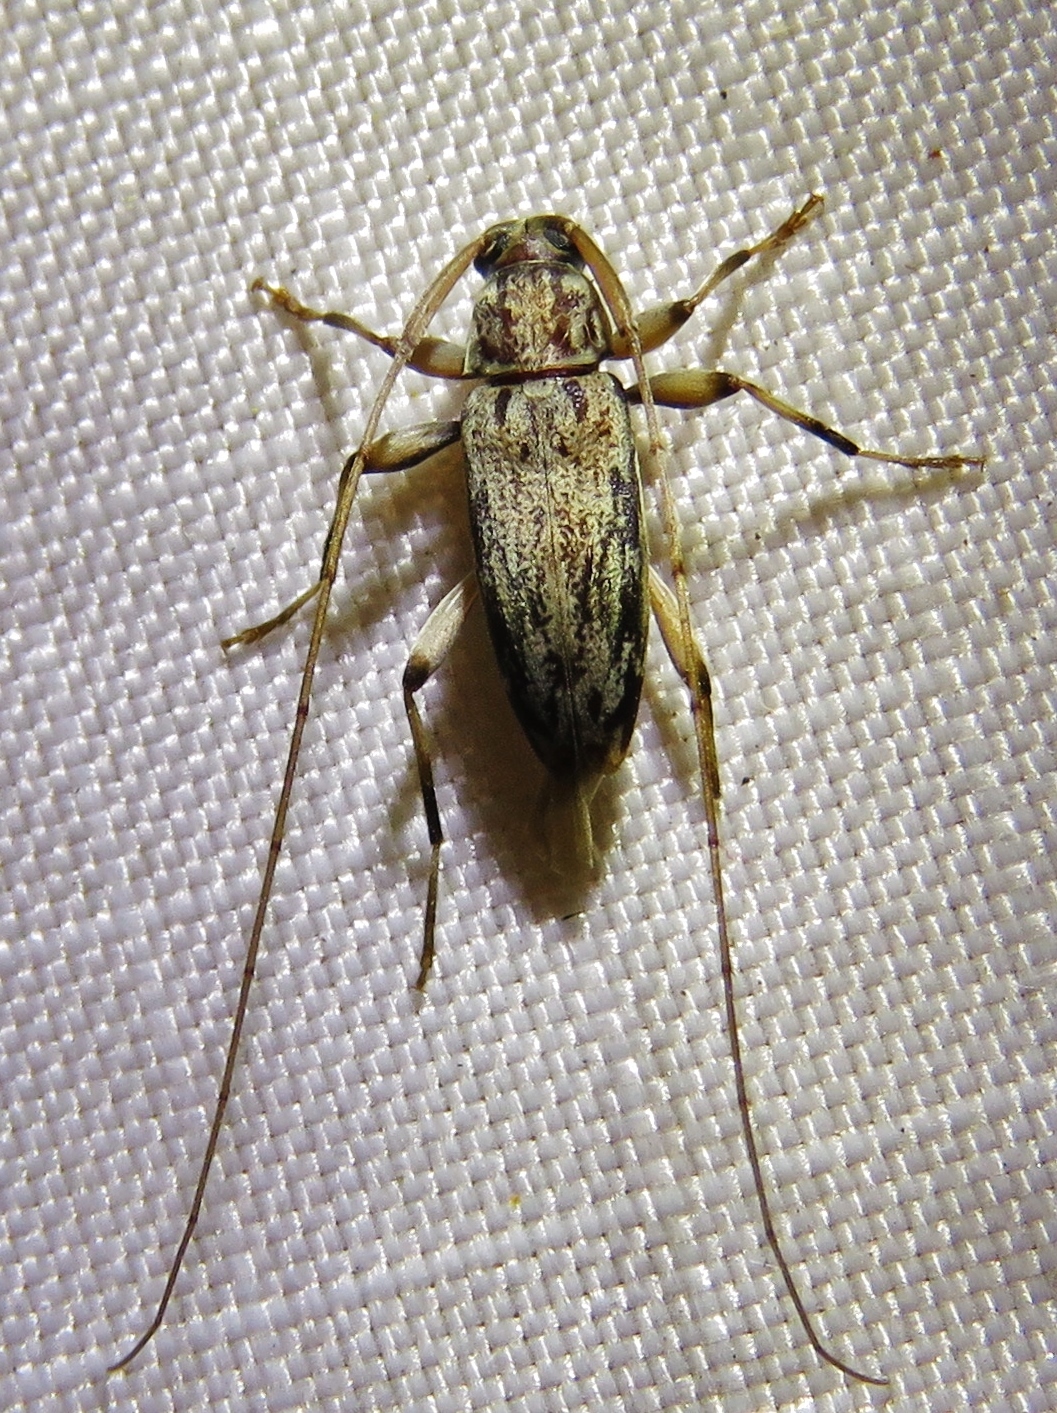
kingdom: Animalia
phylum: Arthropoda
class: Insecta
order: Coleoptera
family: Cerambycidae
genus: Lepturges
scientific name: Lepturges angulatus
